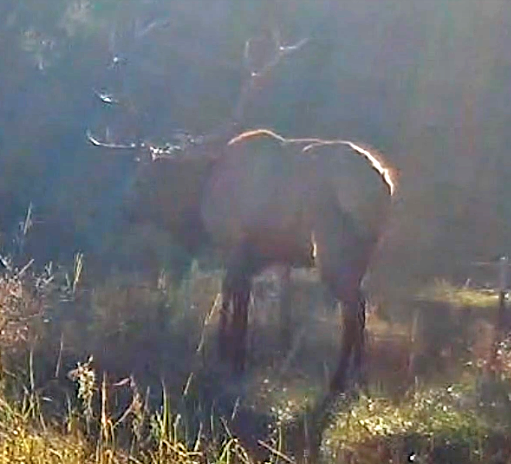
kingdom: Animalia
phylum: Chordata
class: Mammalia
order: Artiodactyla
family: Cervidae
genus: Cervus
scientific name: Cervus elaphus
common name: Red deer
